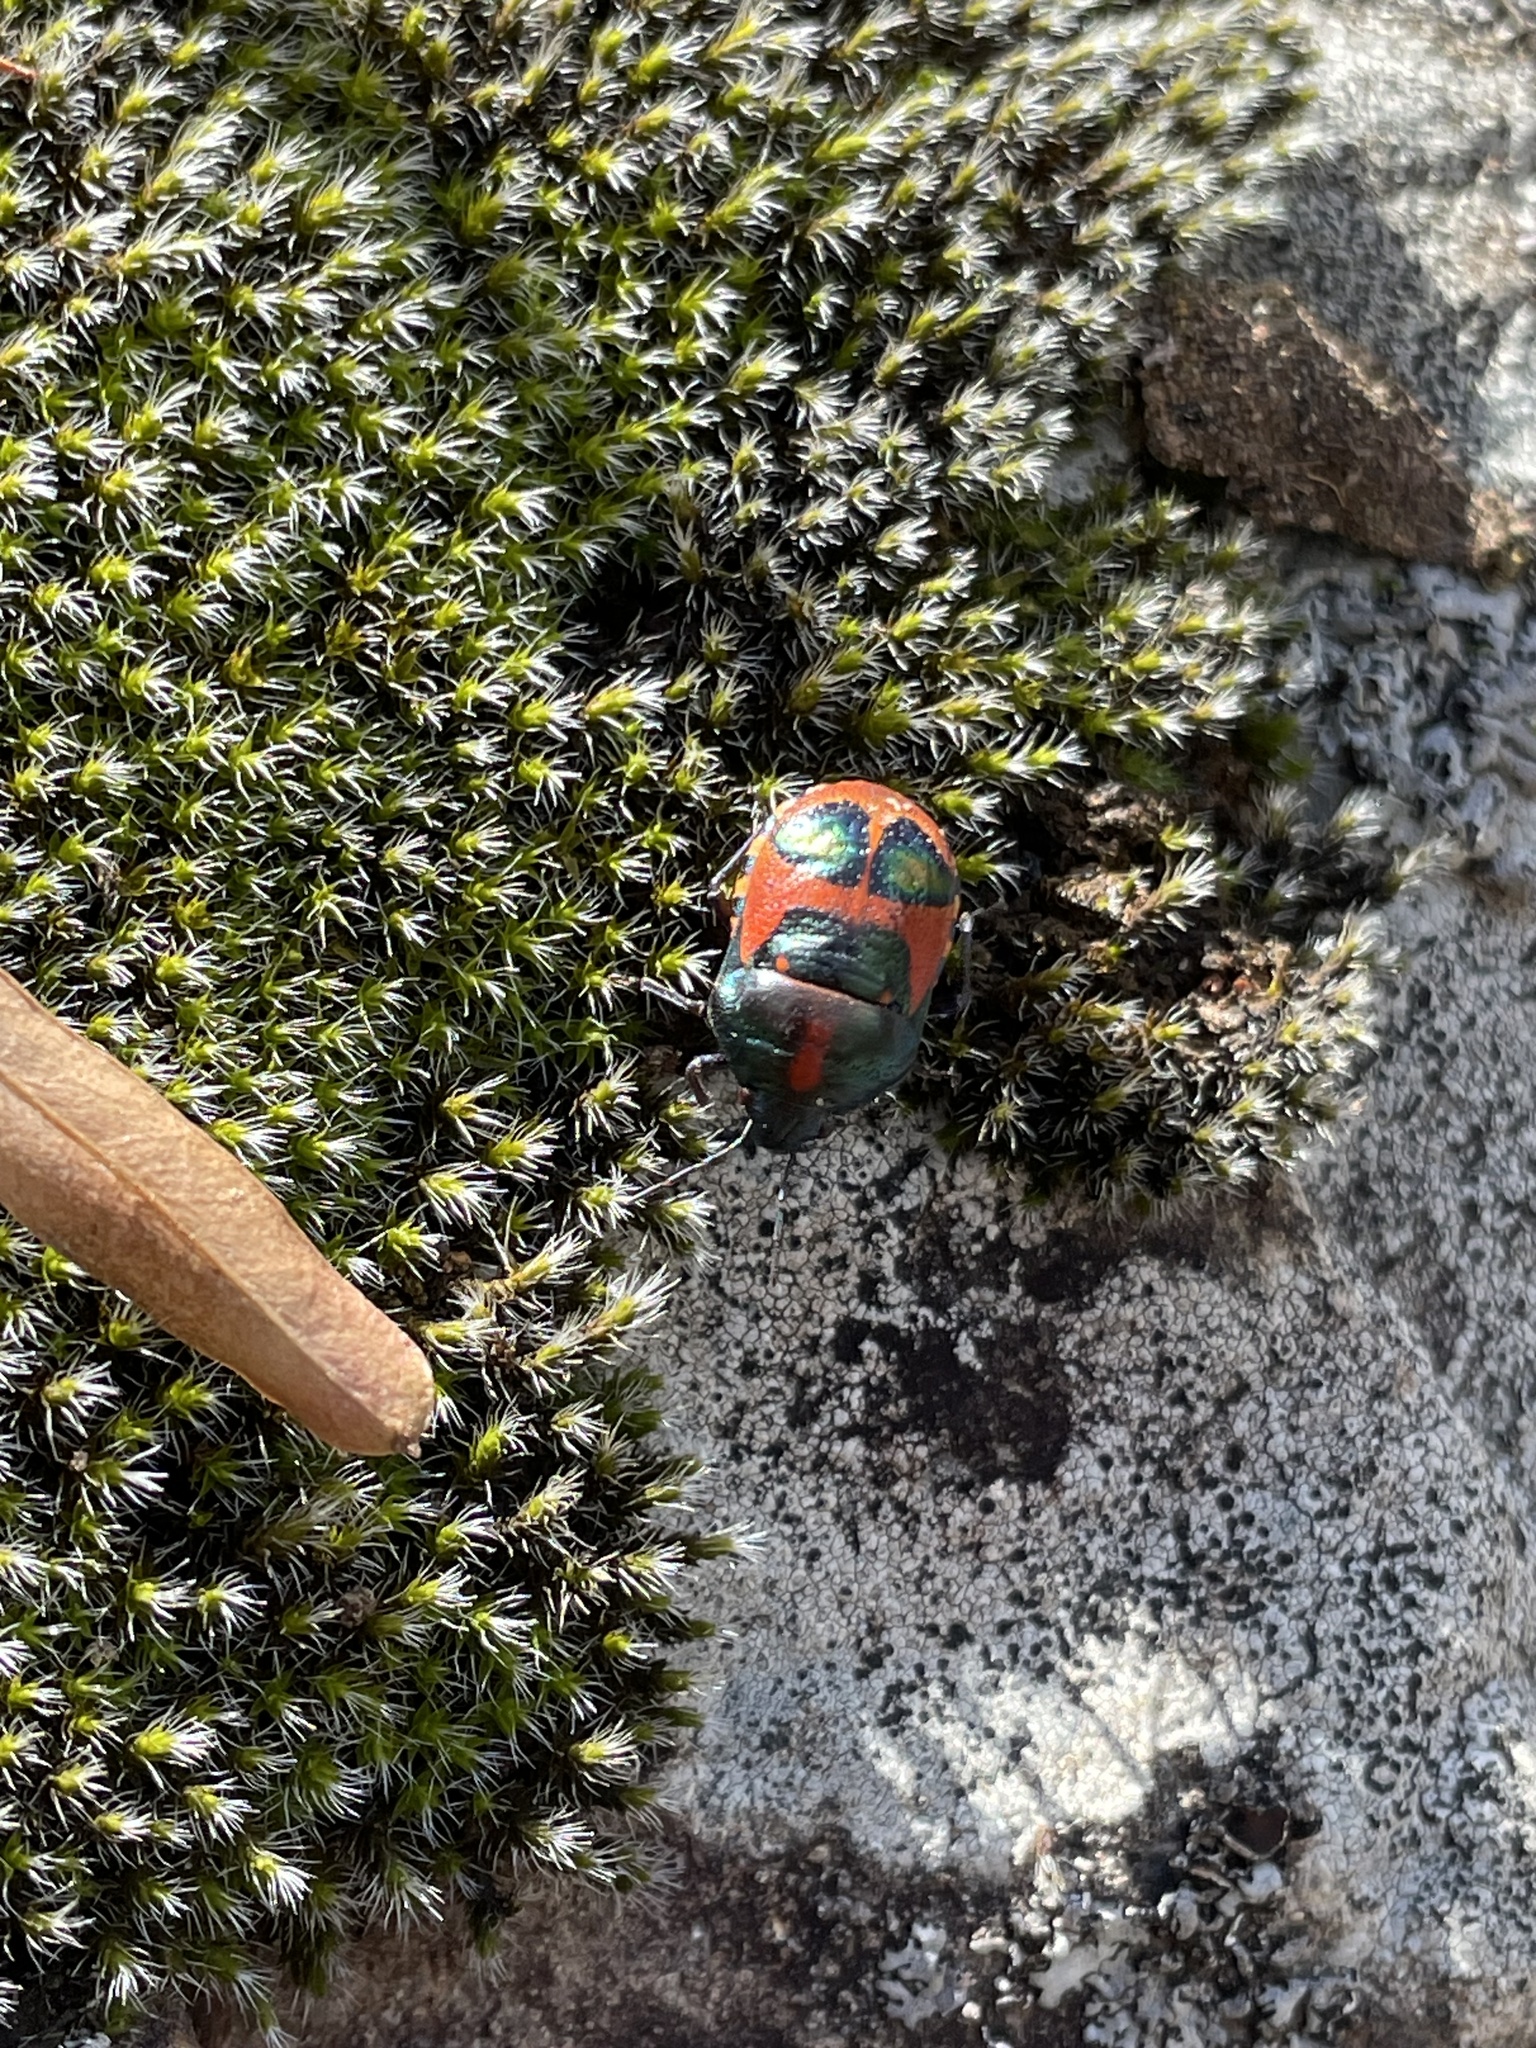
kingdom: Animalia
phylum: Arthropoda
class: Insecta
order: Hemiptera
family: Scutelleridae
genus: Choerocoris
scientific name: Choerocoris paganus
